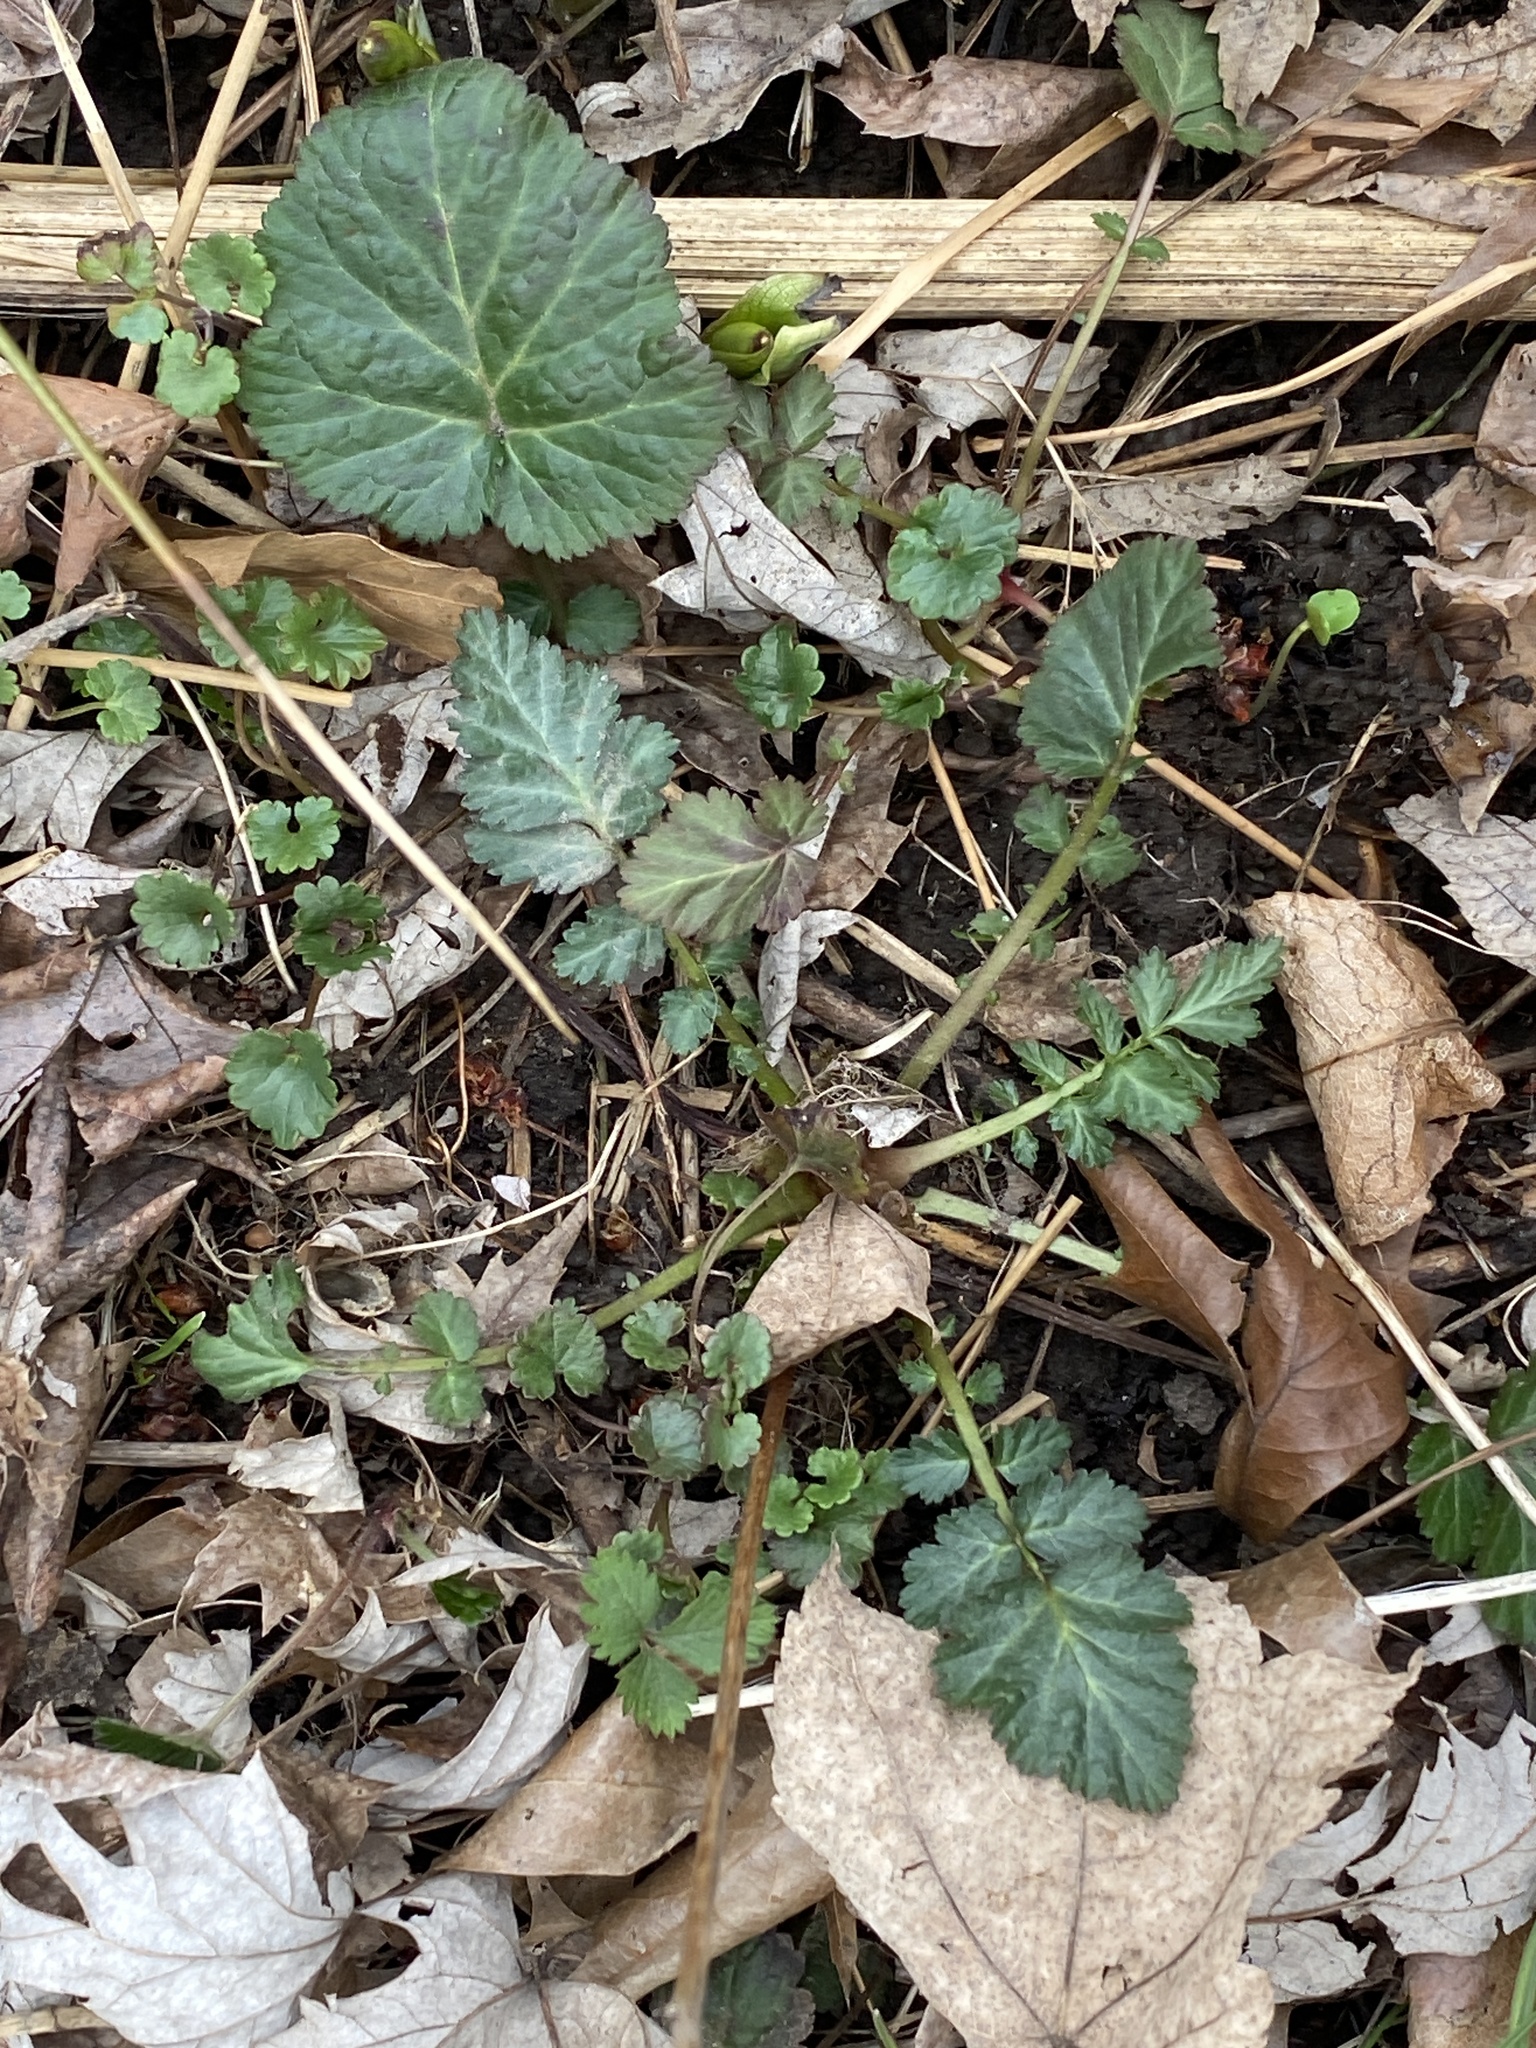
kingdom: Plantae
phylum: Tracheophyta
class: Magnoliopsida
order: Rosales
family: Rosaceae
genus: Geum
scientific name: Geum canadense
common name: White avens
